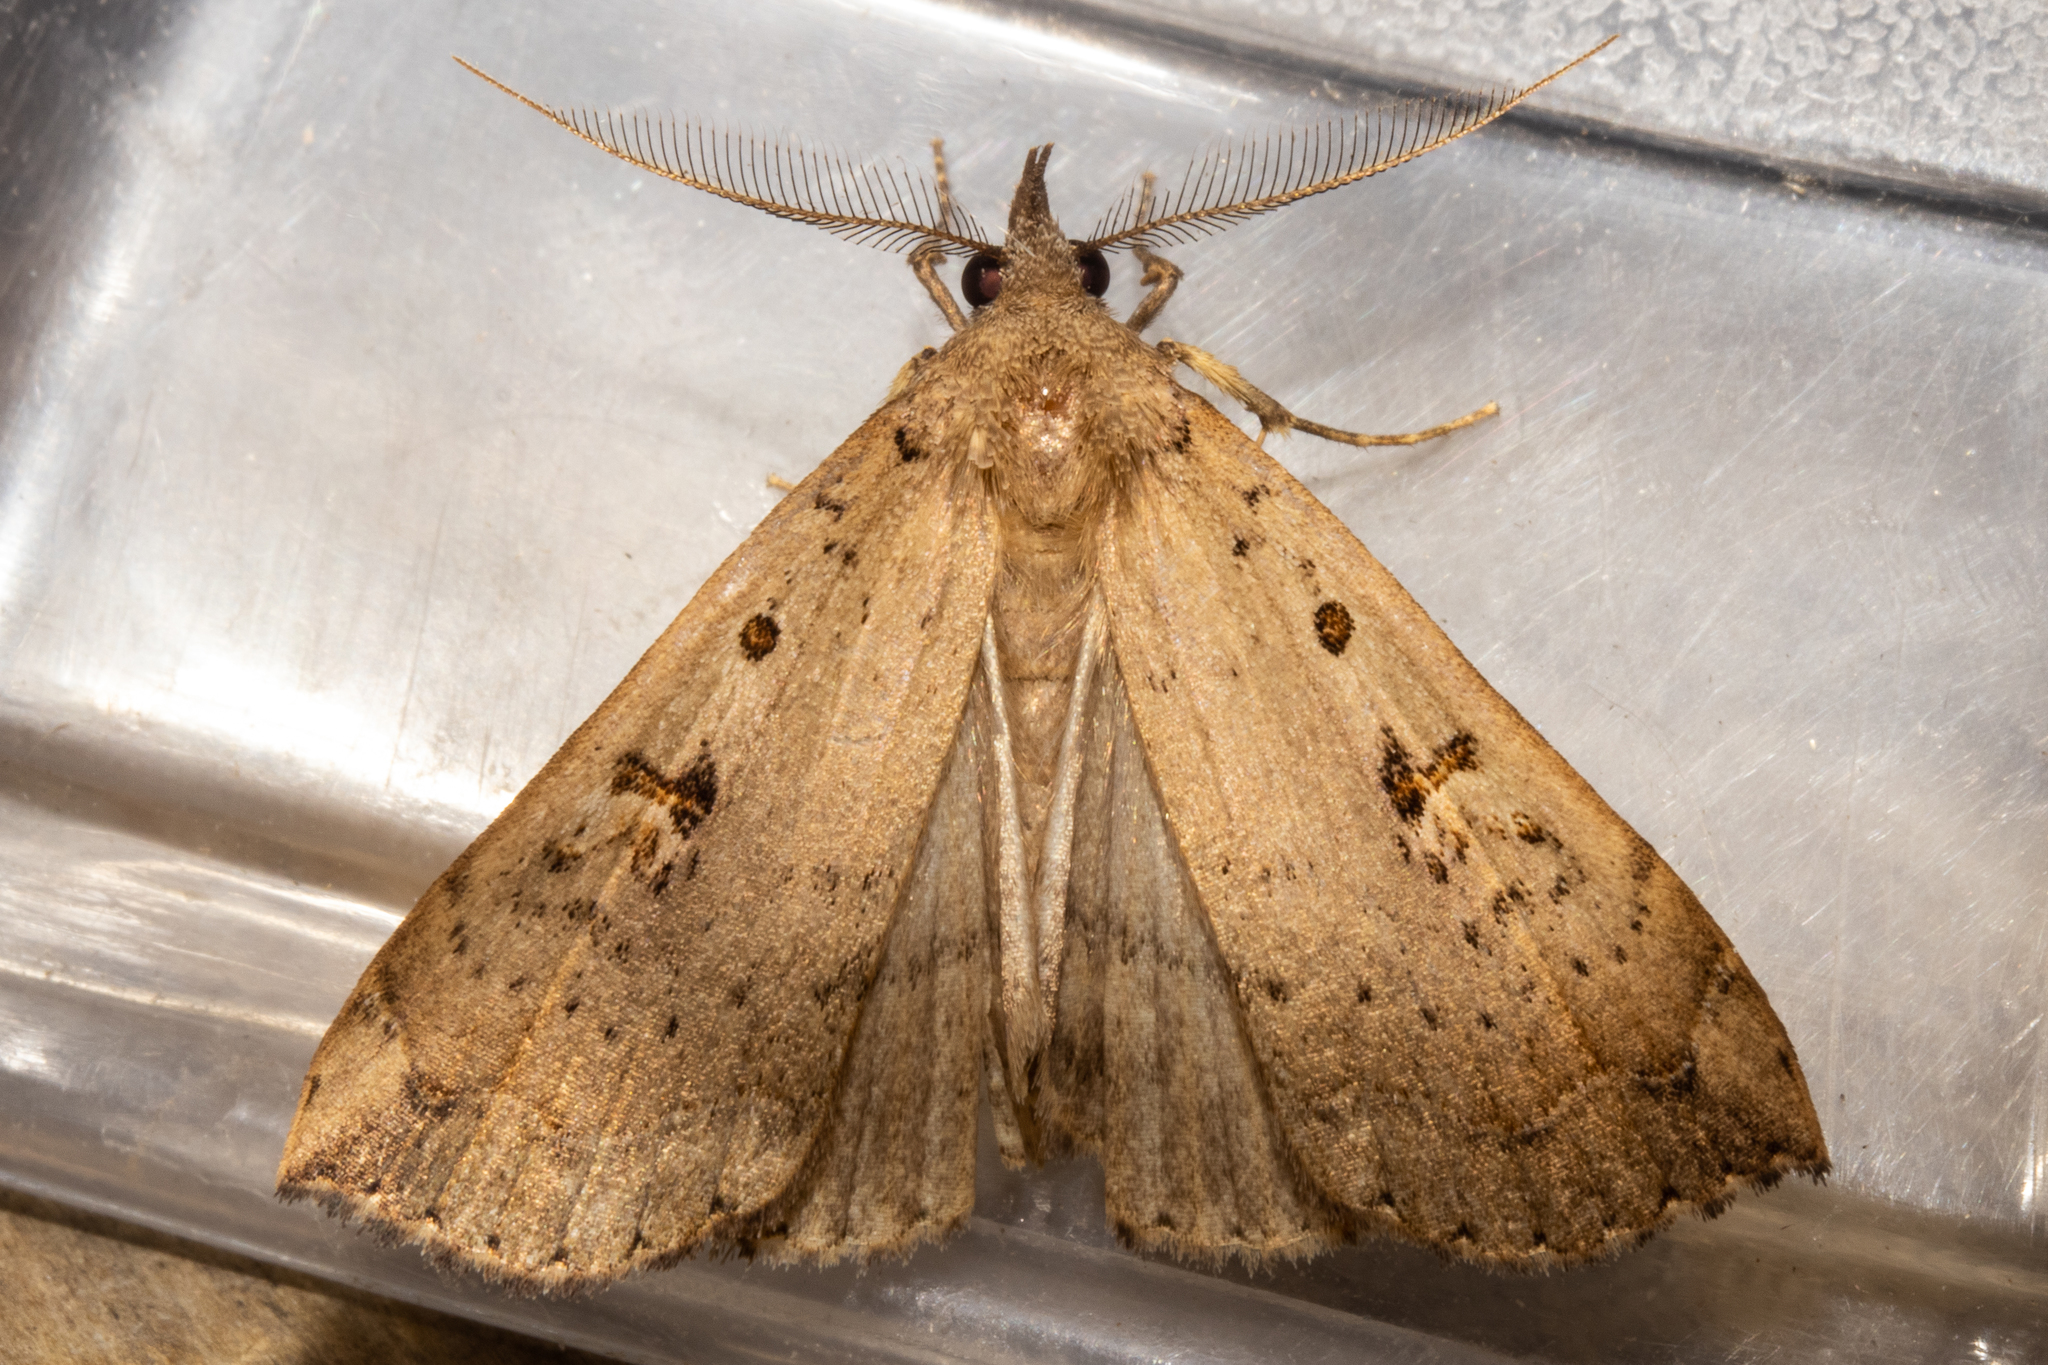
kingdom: Animalia
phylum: Arthropoda
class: Insecta
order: Lepidoptera
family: Erebidae
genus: Rhapsa
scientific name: Rhapsa scotosialis
